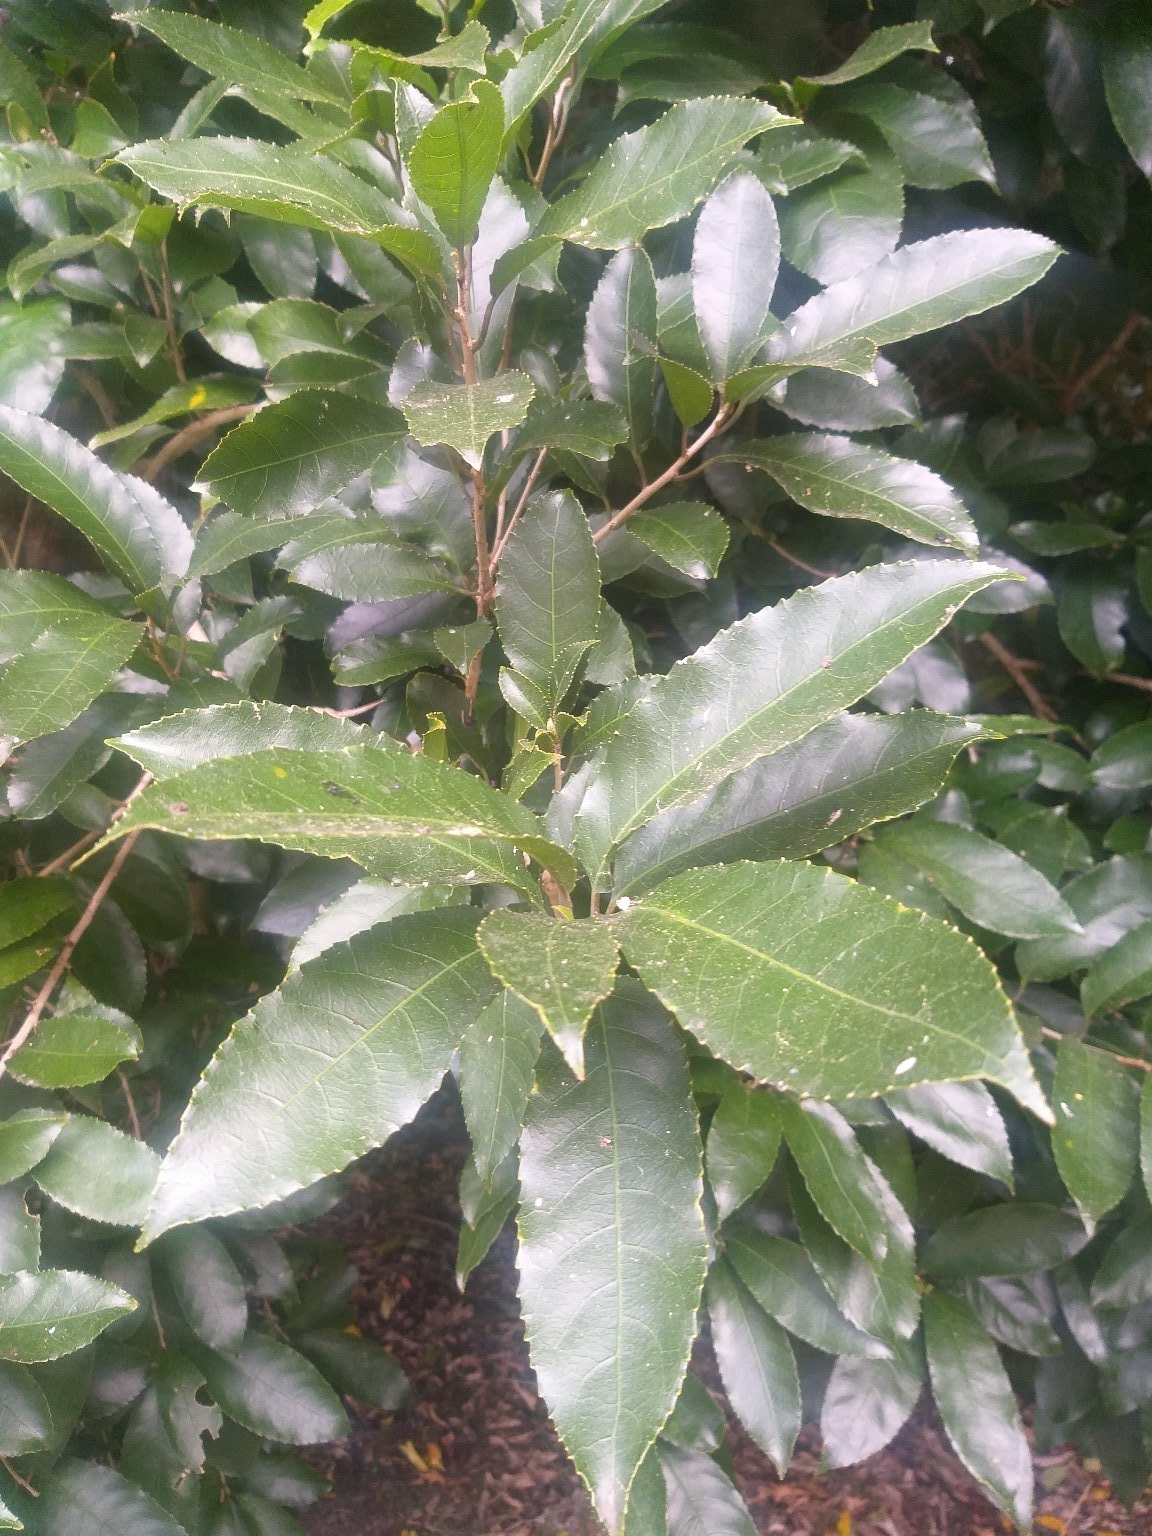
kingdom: Plantae
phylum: Tracheophyta
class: Magnoliopsida
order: Malpighiales
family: Violaceae
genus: Melicytus
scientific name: Melicytus ramiflorus
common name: Mahoe
